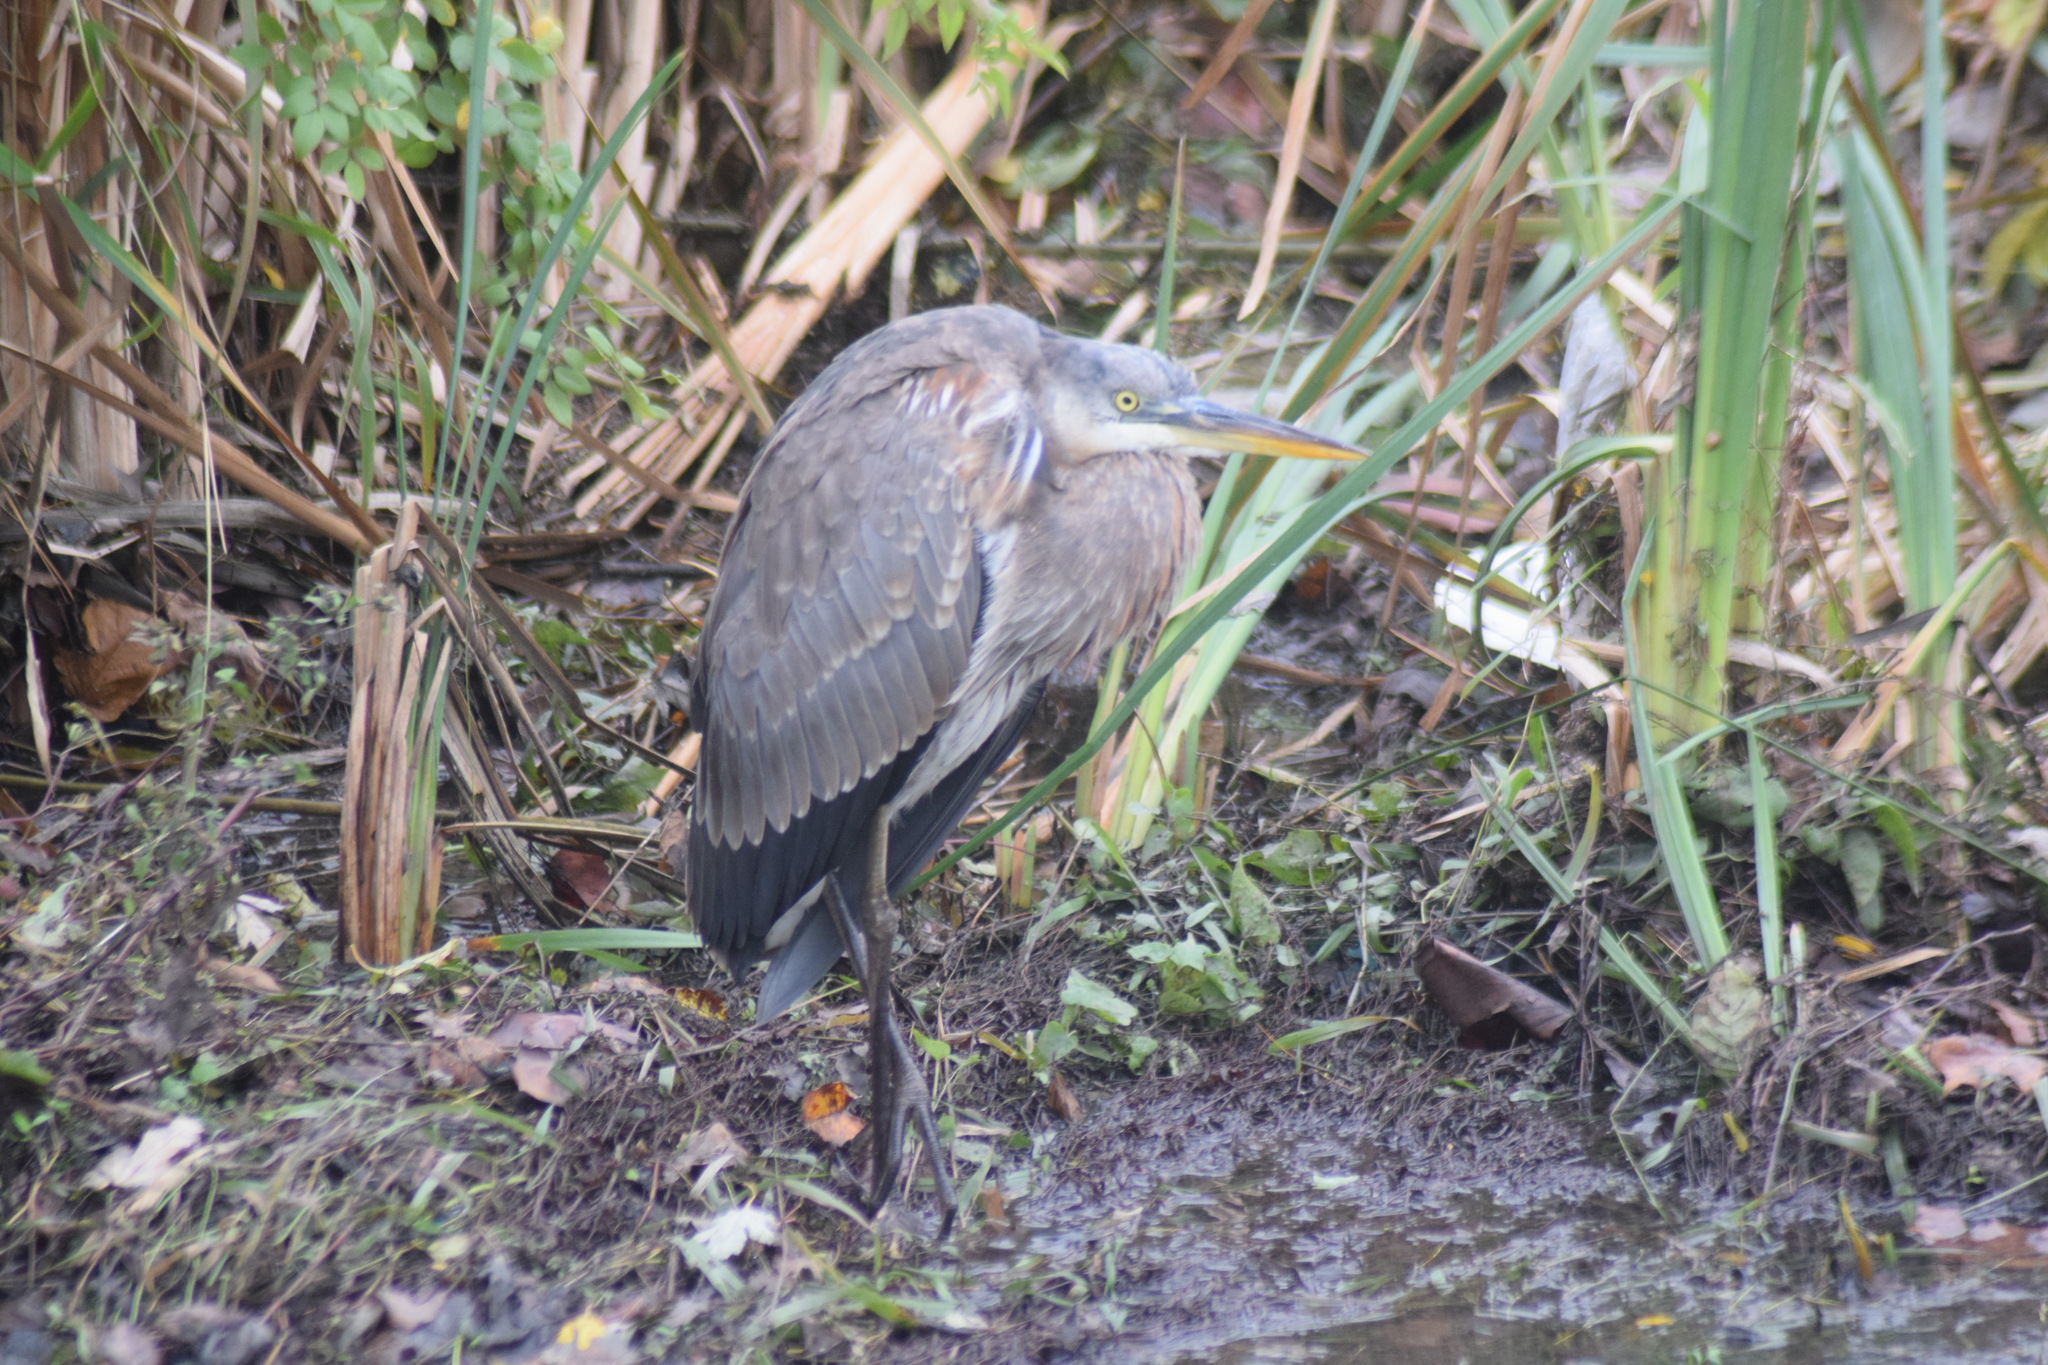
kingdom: Animalia
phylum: Chordata
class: Aves
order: Pelecaniformes
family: Ardeidae
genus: Ardea
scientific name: Ardea herodias
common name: Great blue heron
